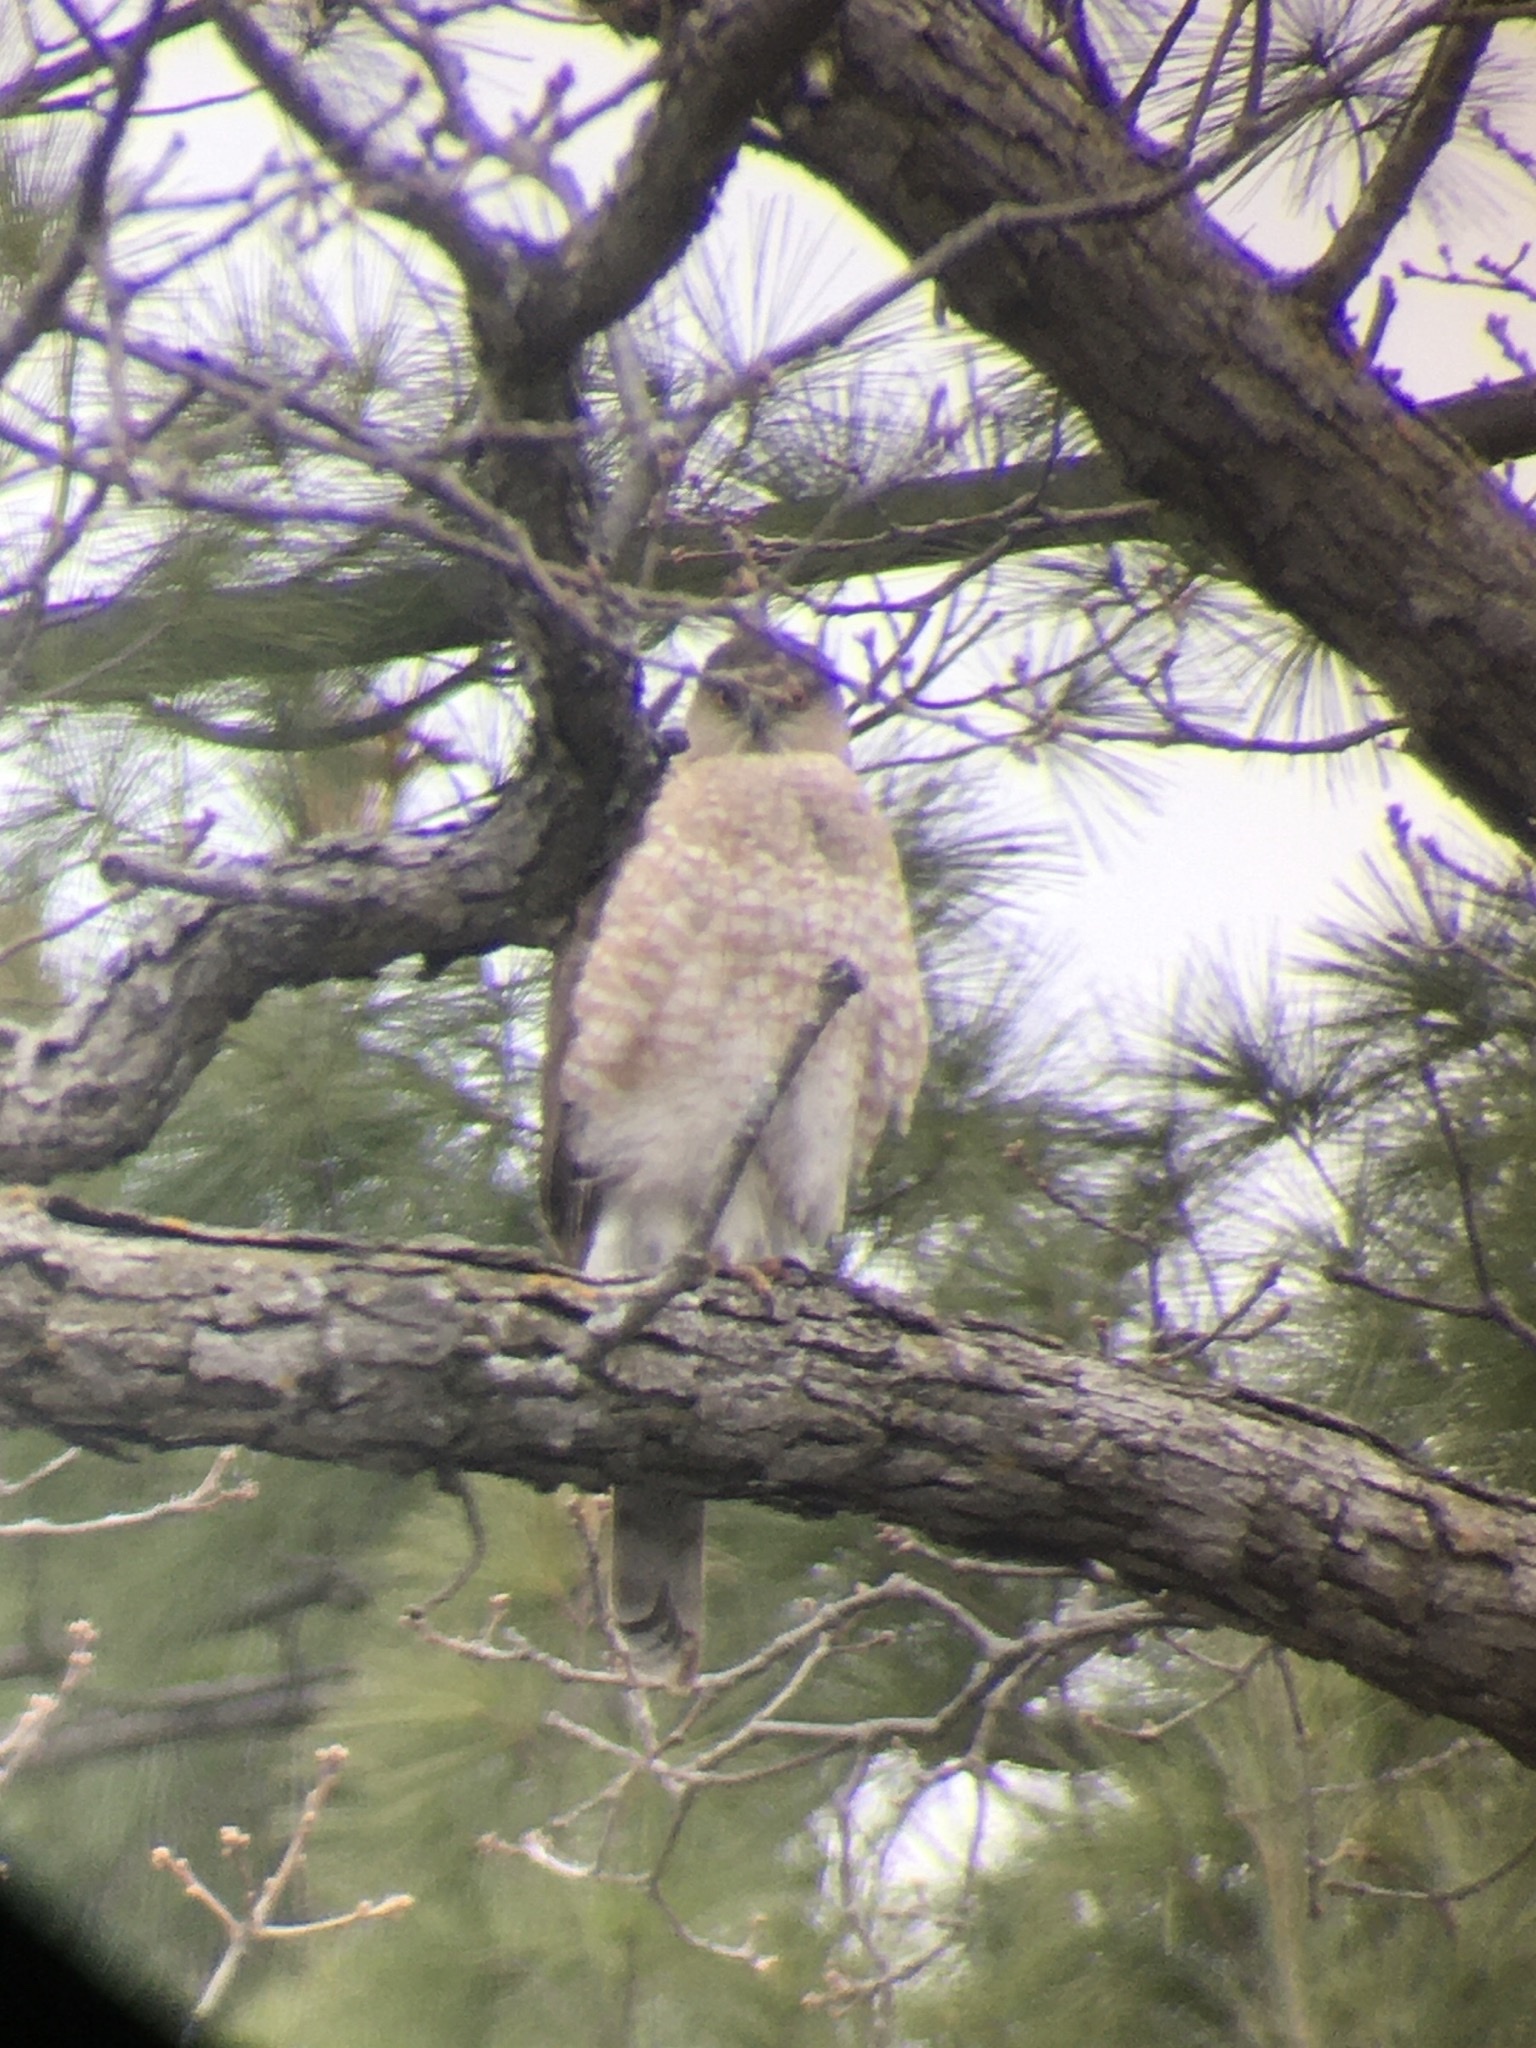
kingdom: Animalia
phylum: Chordata
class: Aves
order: Accipitriformes
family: Accipitridae
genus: Accipiter
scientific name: Accipiter cooperii
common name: Cooper's hawk
